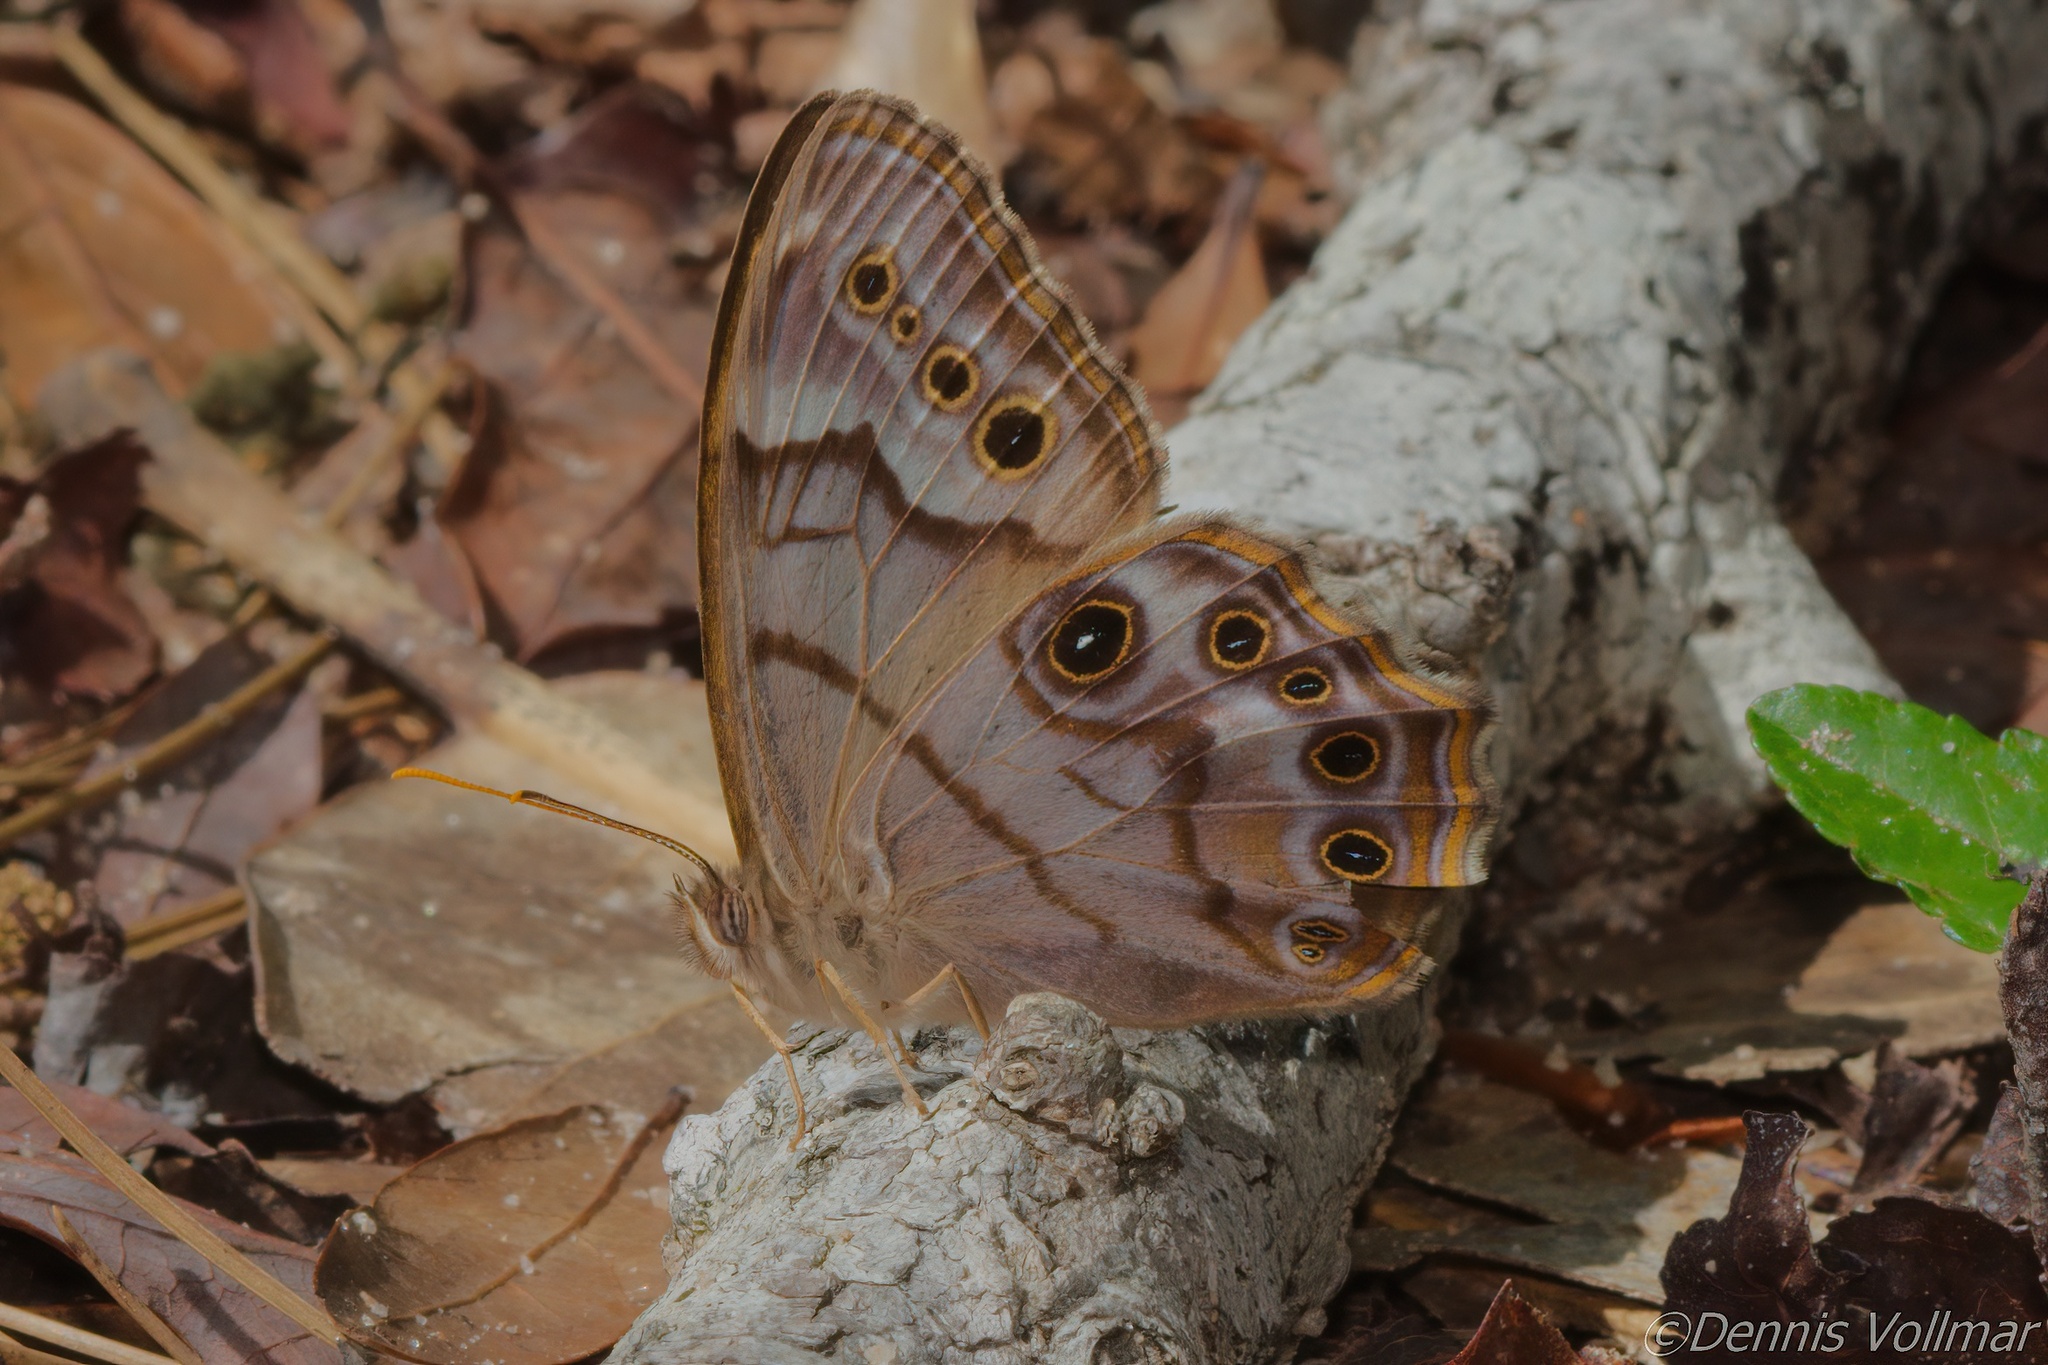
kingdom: Animalia
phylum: Arthropoda
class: Insecta
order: Lepidoptera
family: Nymphalidae
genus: Enodia
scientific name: Enodia portlandia
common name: Southern pearly-eye
